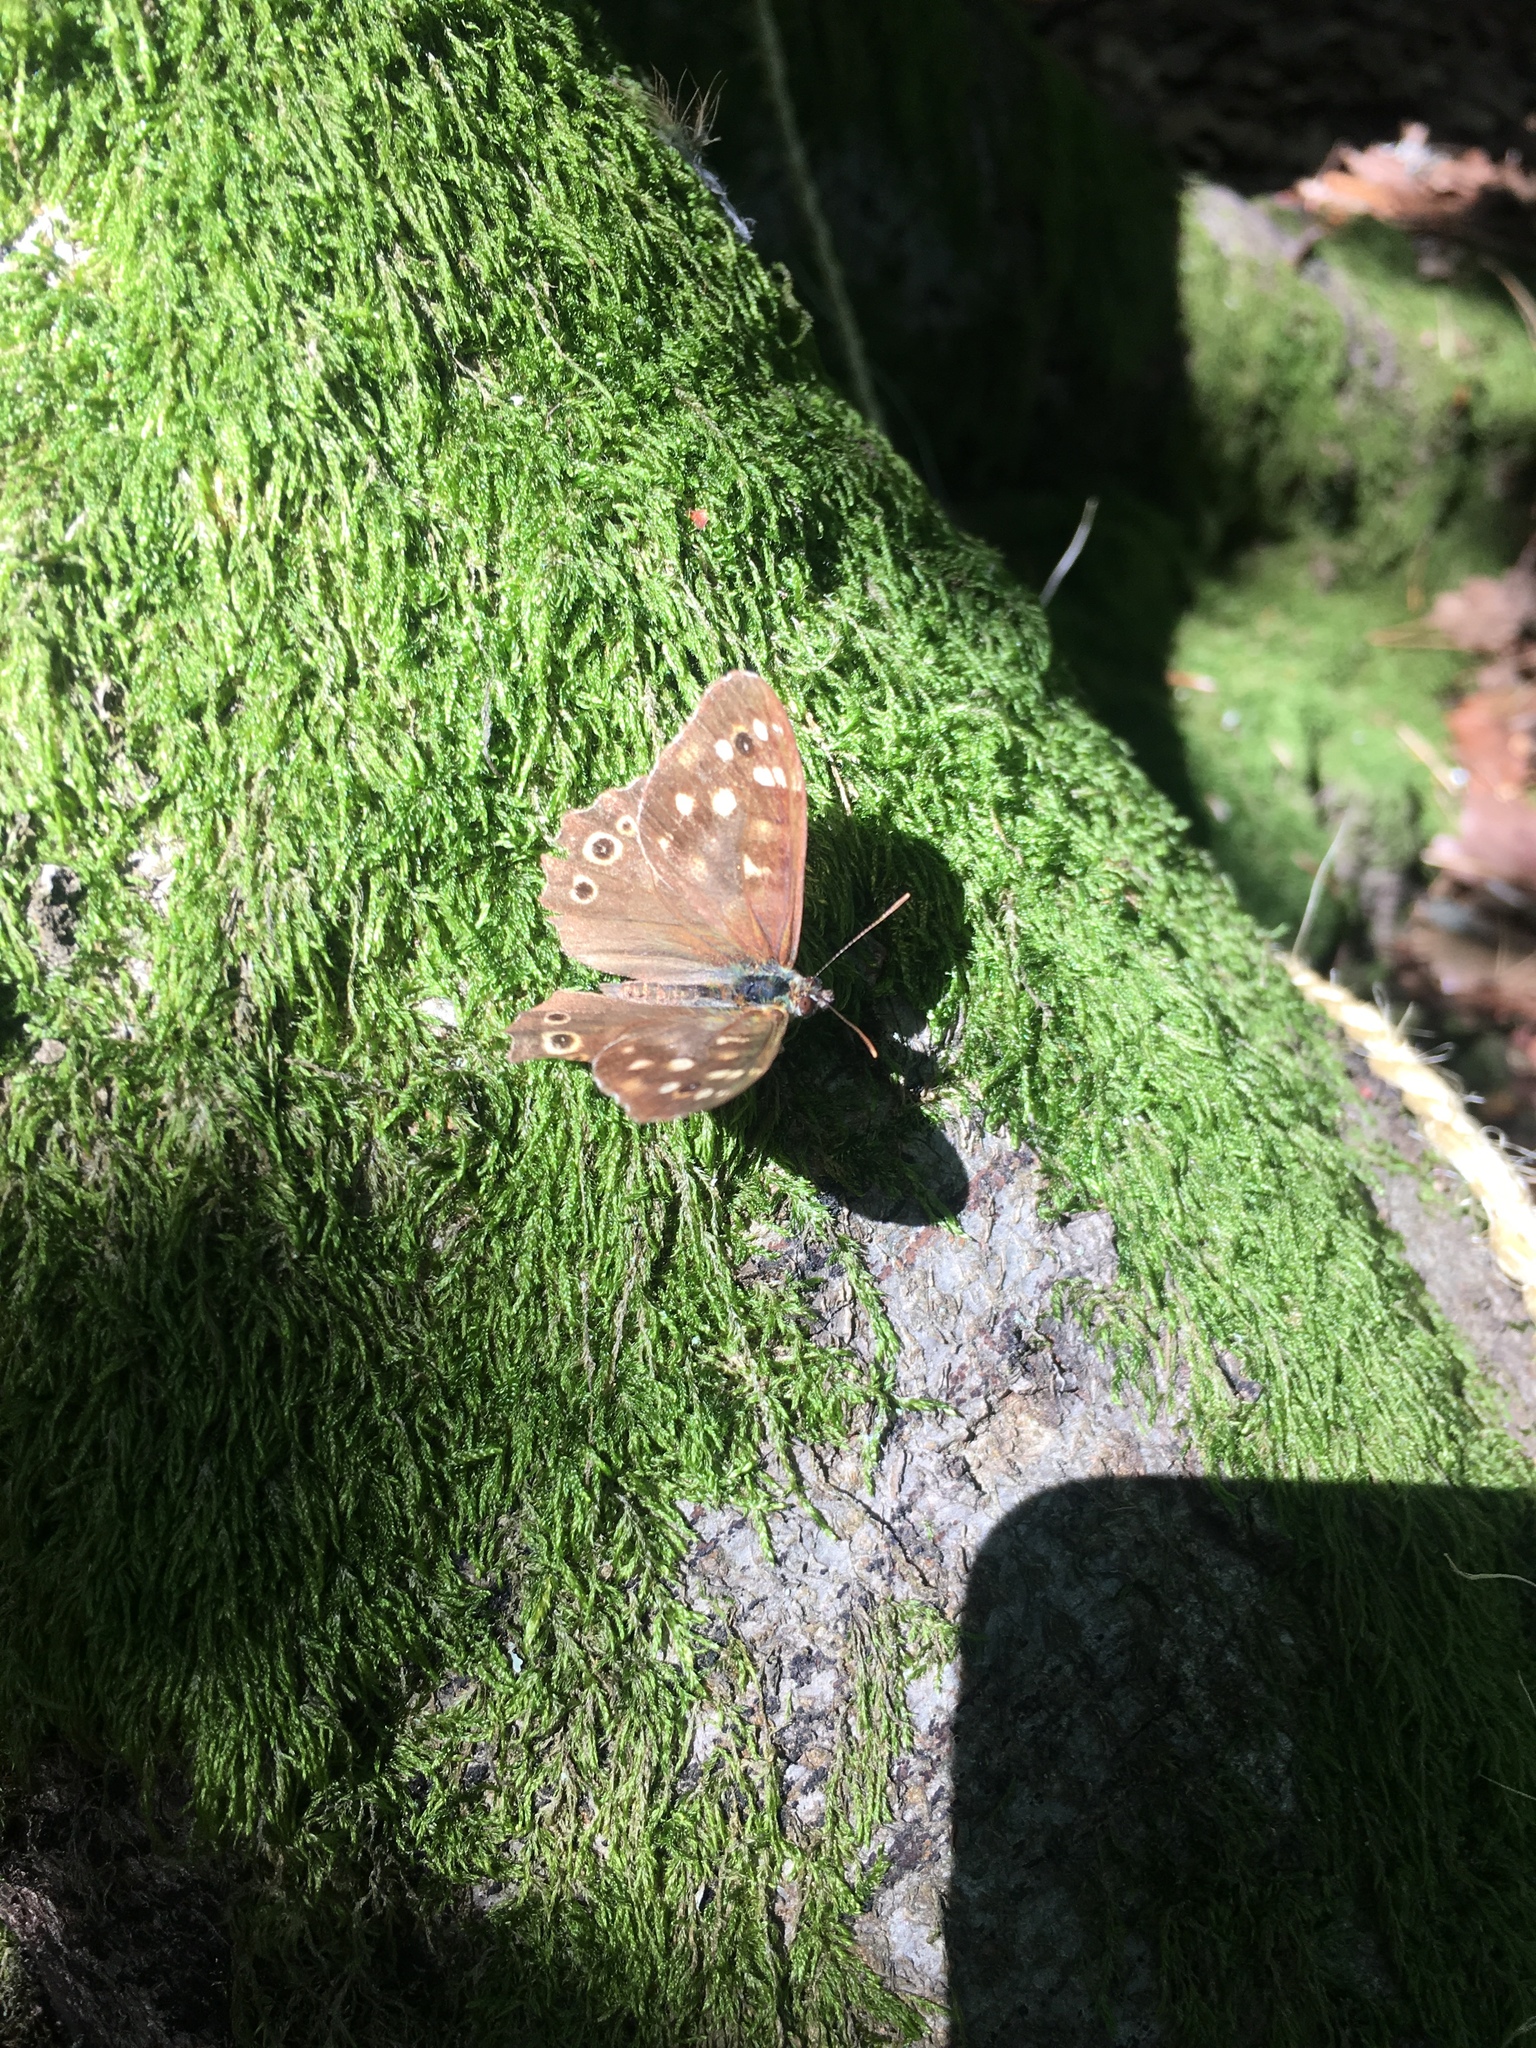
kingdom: Animalia
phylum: Arthropoda
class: Insecta
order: Lepidoptera
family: Nymphalidae
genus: Pararge
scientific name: Pararge aegeria
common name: Speckled wood
